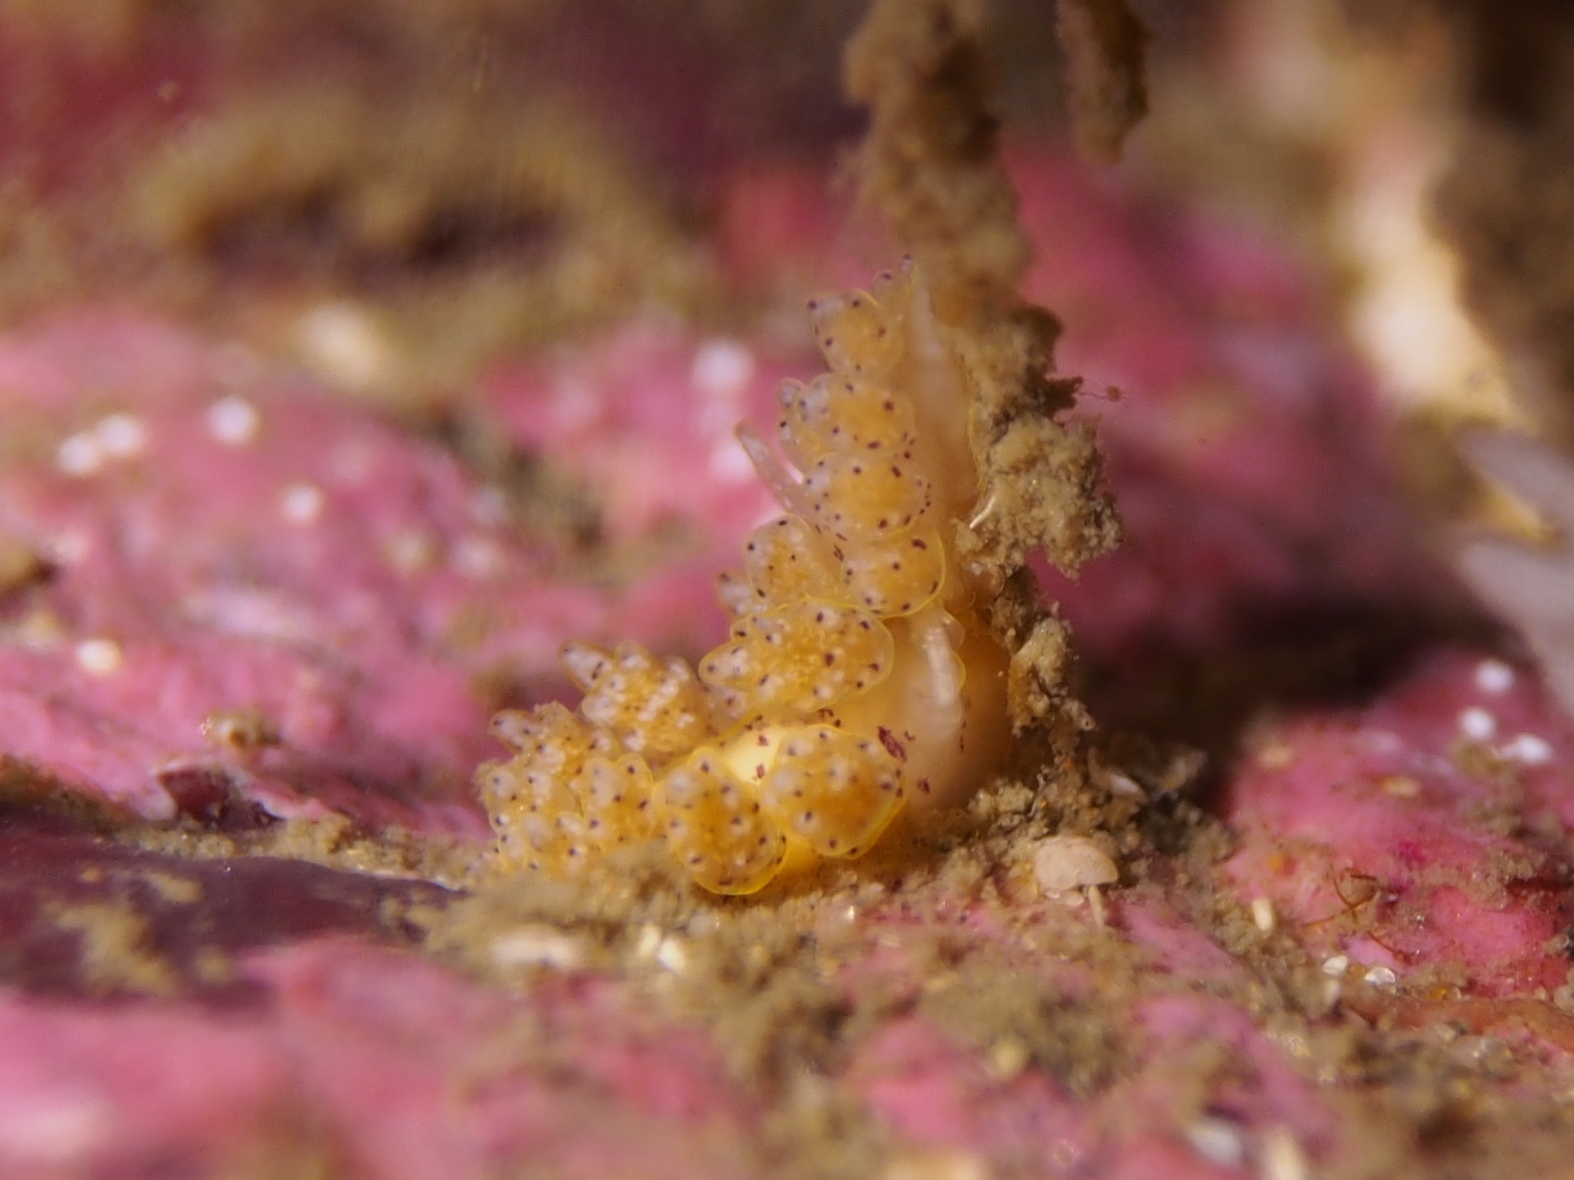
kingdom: Animalia
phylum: Mollusca
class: Gastropoda
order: Nudibranchia
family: Dotidae
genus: Doto
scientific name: Doto dunnei
